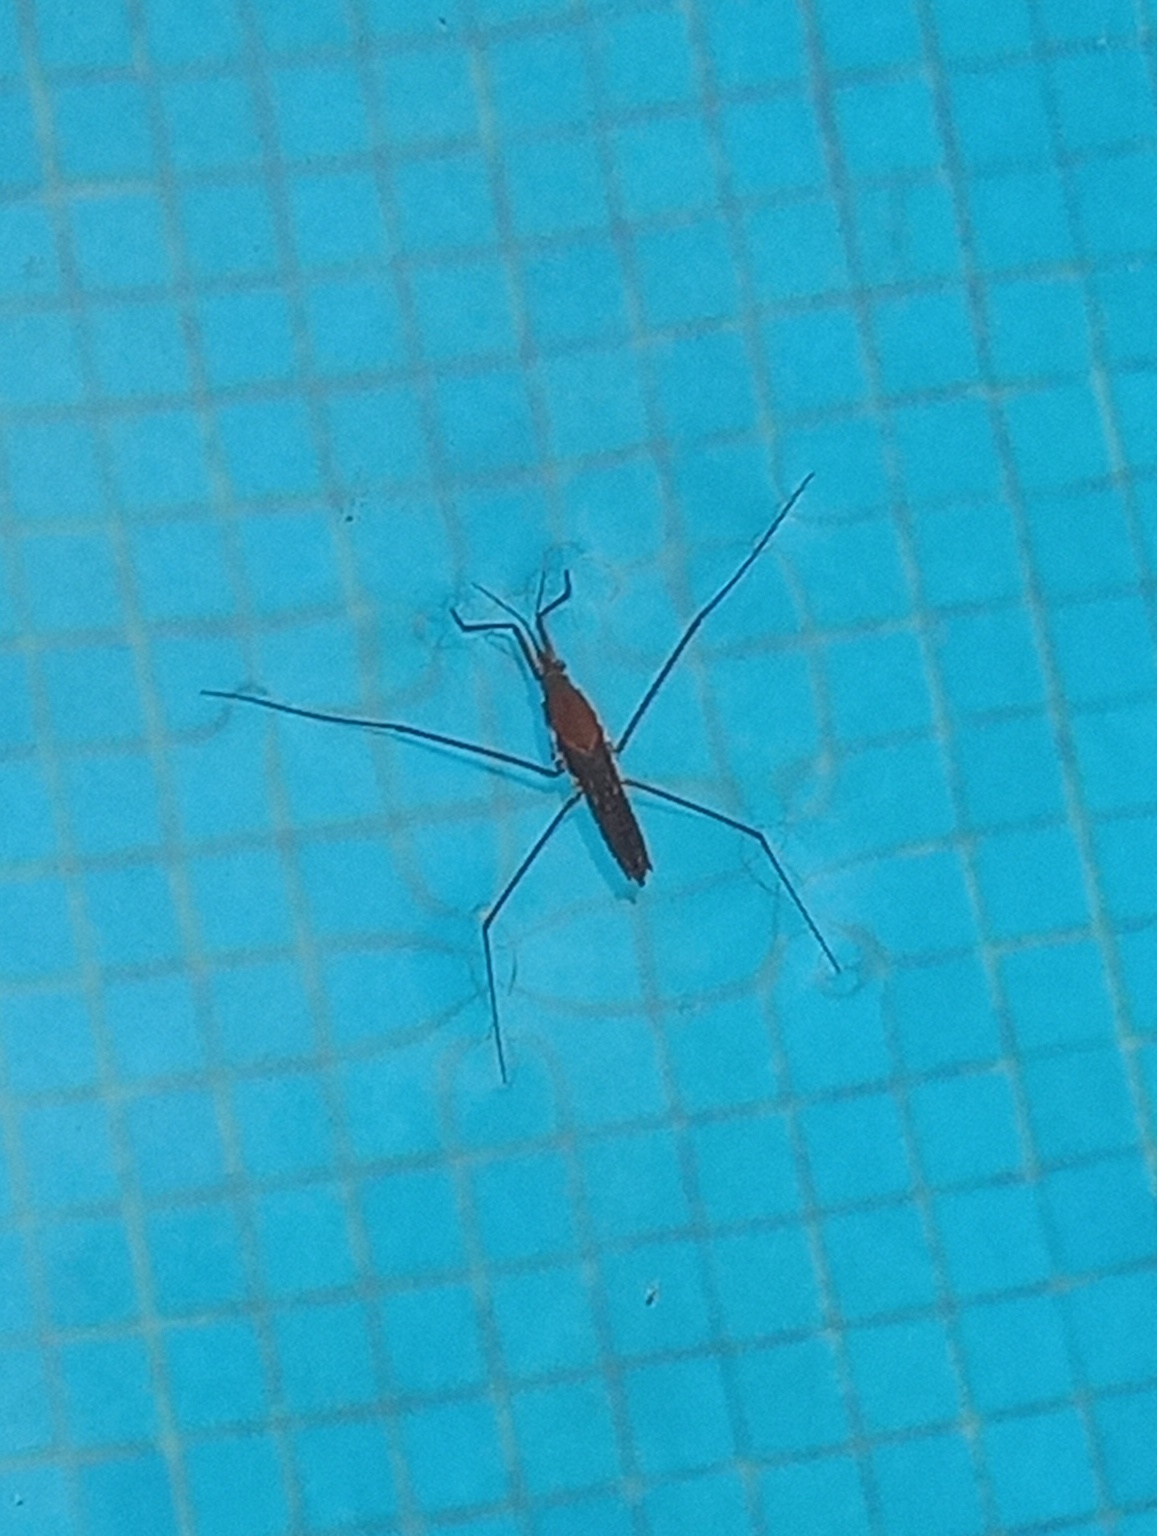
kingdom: Animalia
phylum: Arthropoda
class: Insecta
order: Hemiptera
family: Gerridae
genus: Aquarius
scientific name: Aquarius
